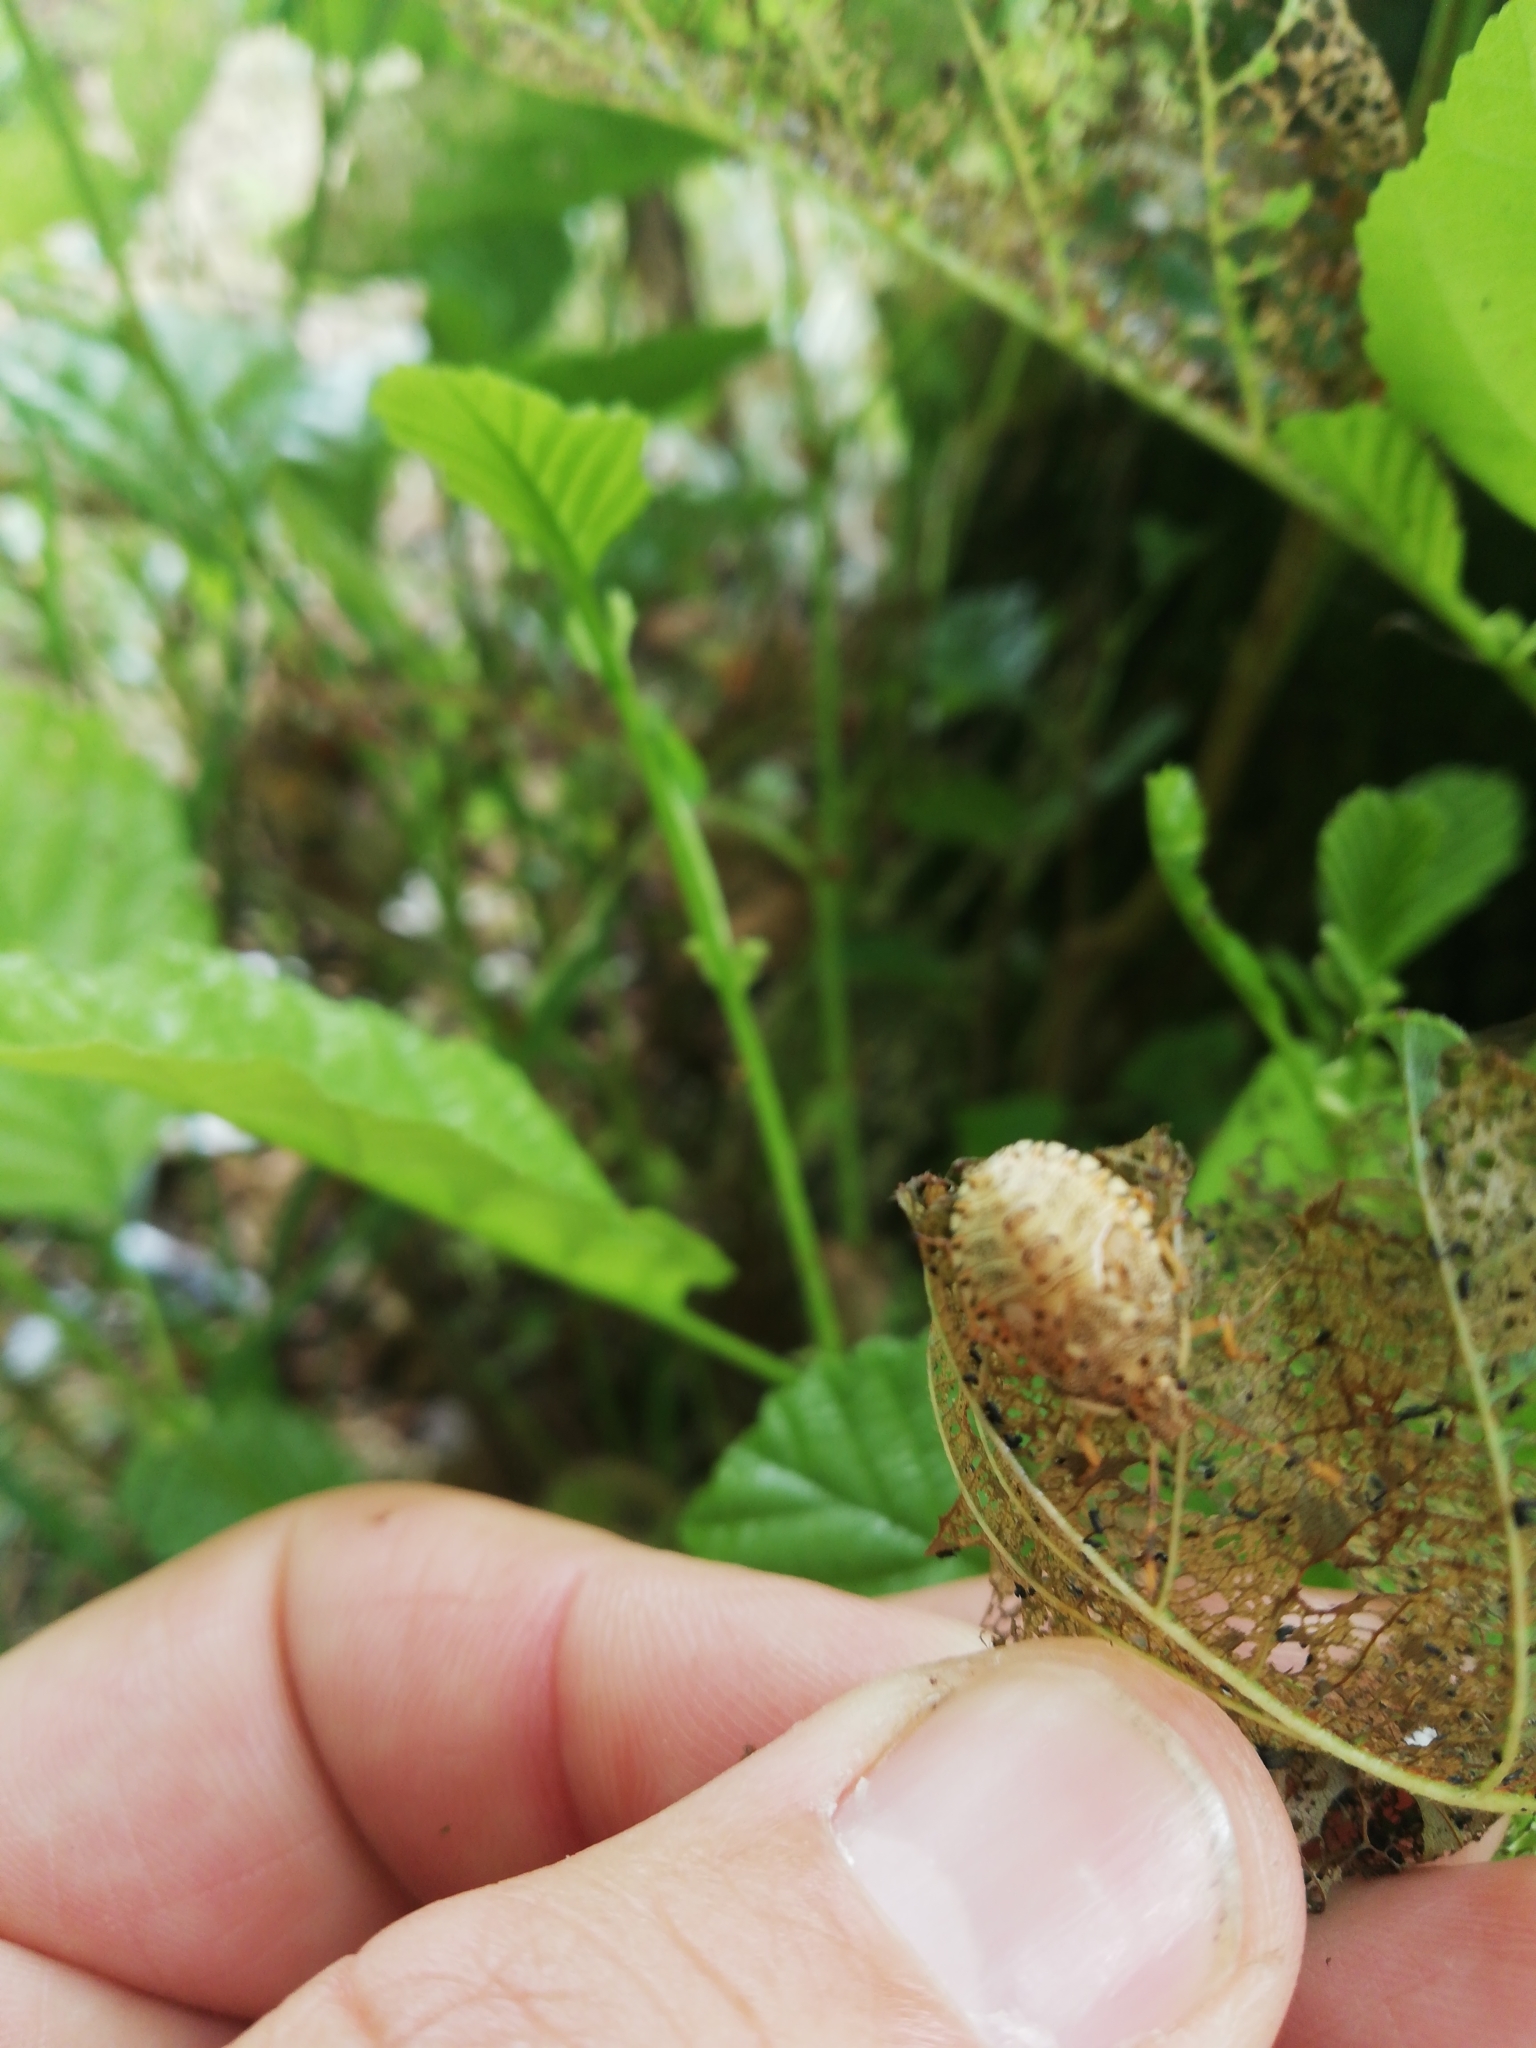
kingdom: Animalia
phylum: Arthropoda
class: Insecta
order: Hemiptera
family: Pentatomidae
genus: Arma
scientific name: Arma custos
